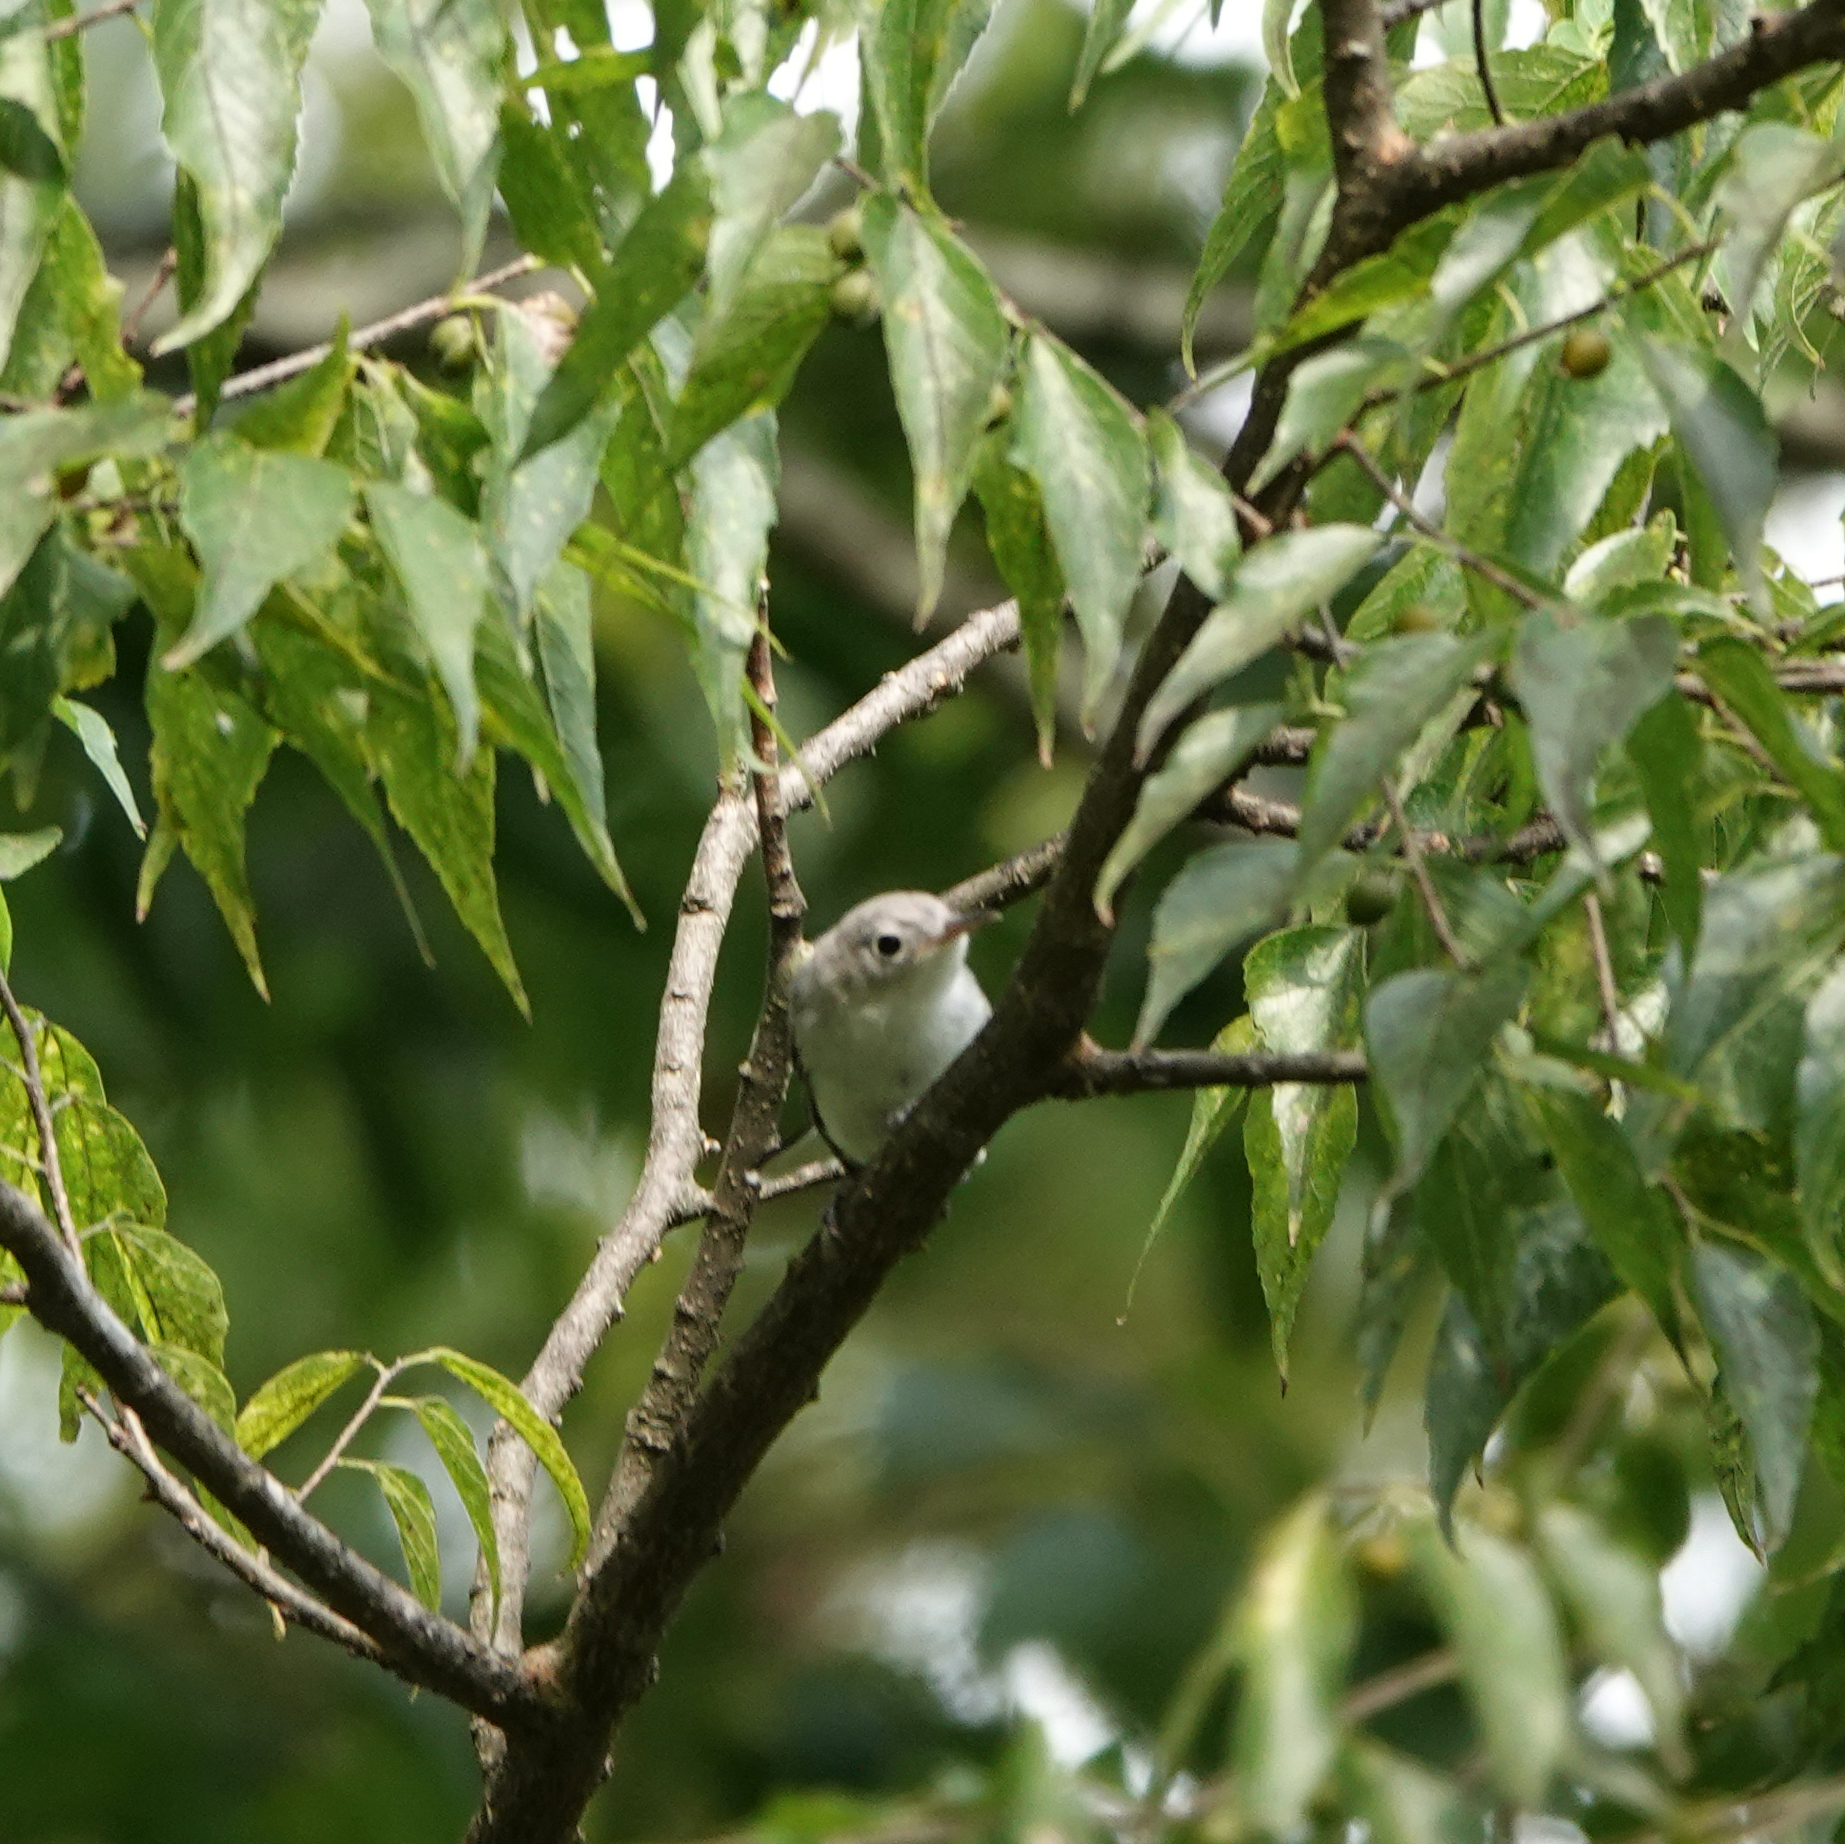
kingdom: Animalia
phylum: Chordata
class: Aves
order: Passeriformes
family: Polioptilidae
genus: Polioptila
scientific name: Polioptila caerulea
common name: Blue-gray gnatcatcher
